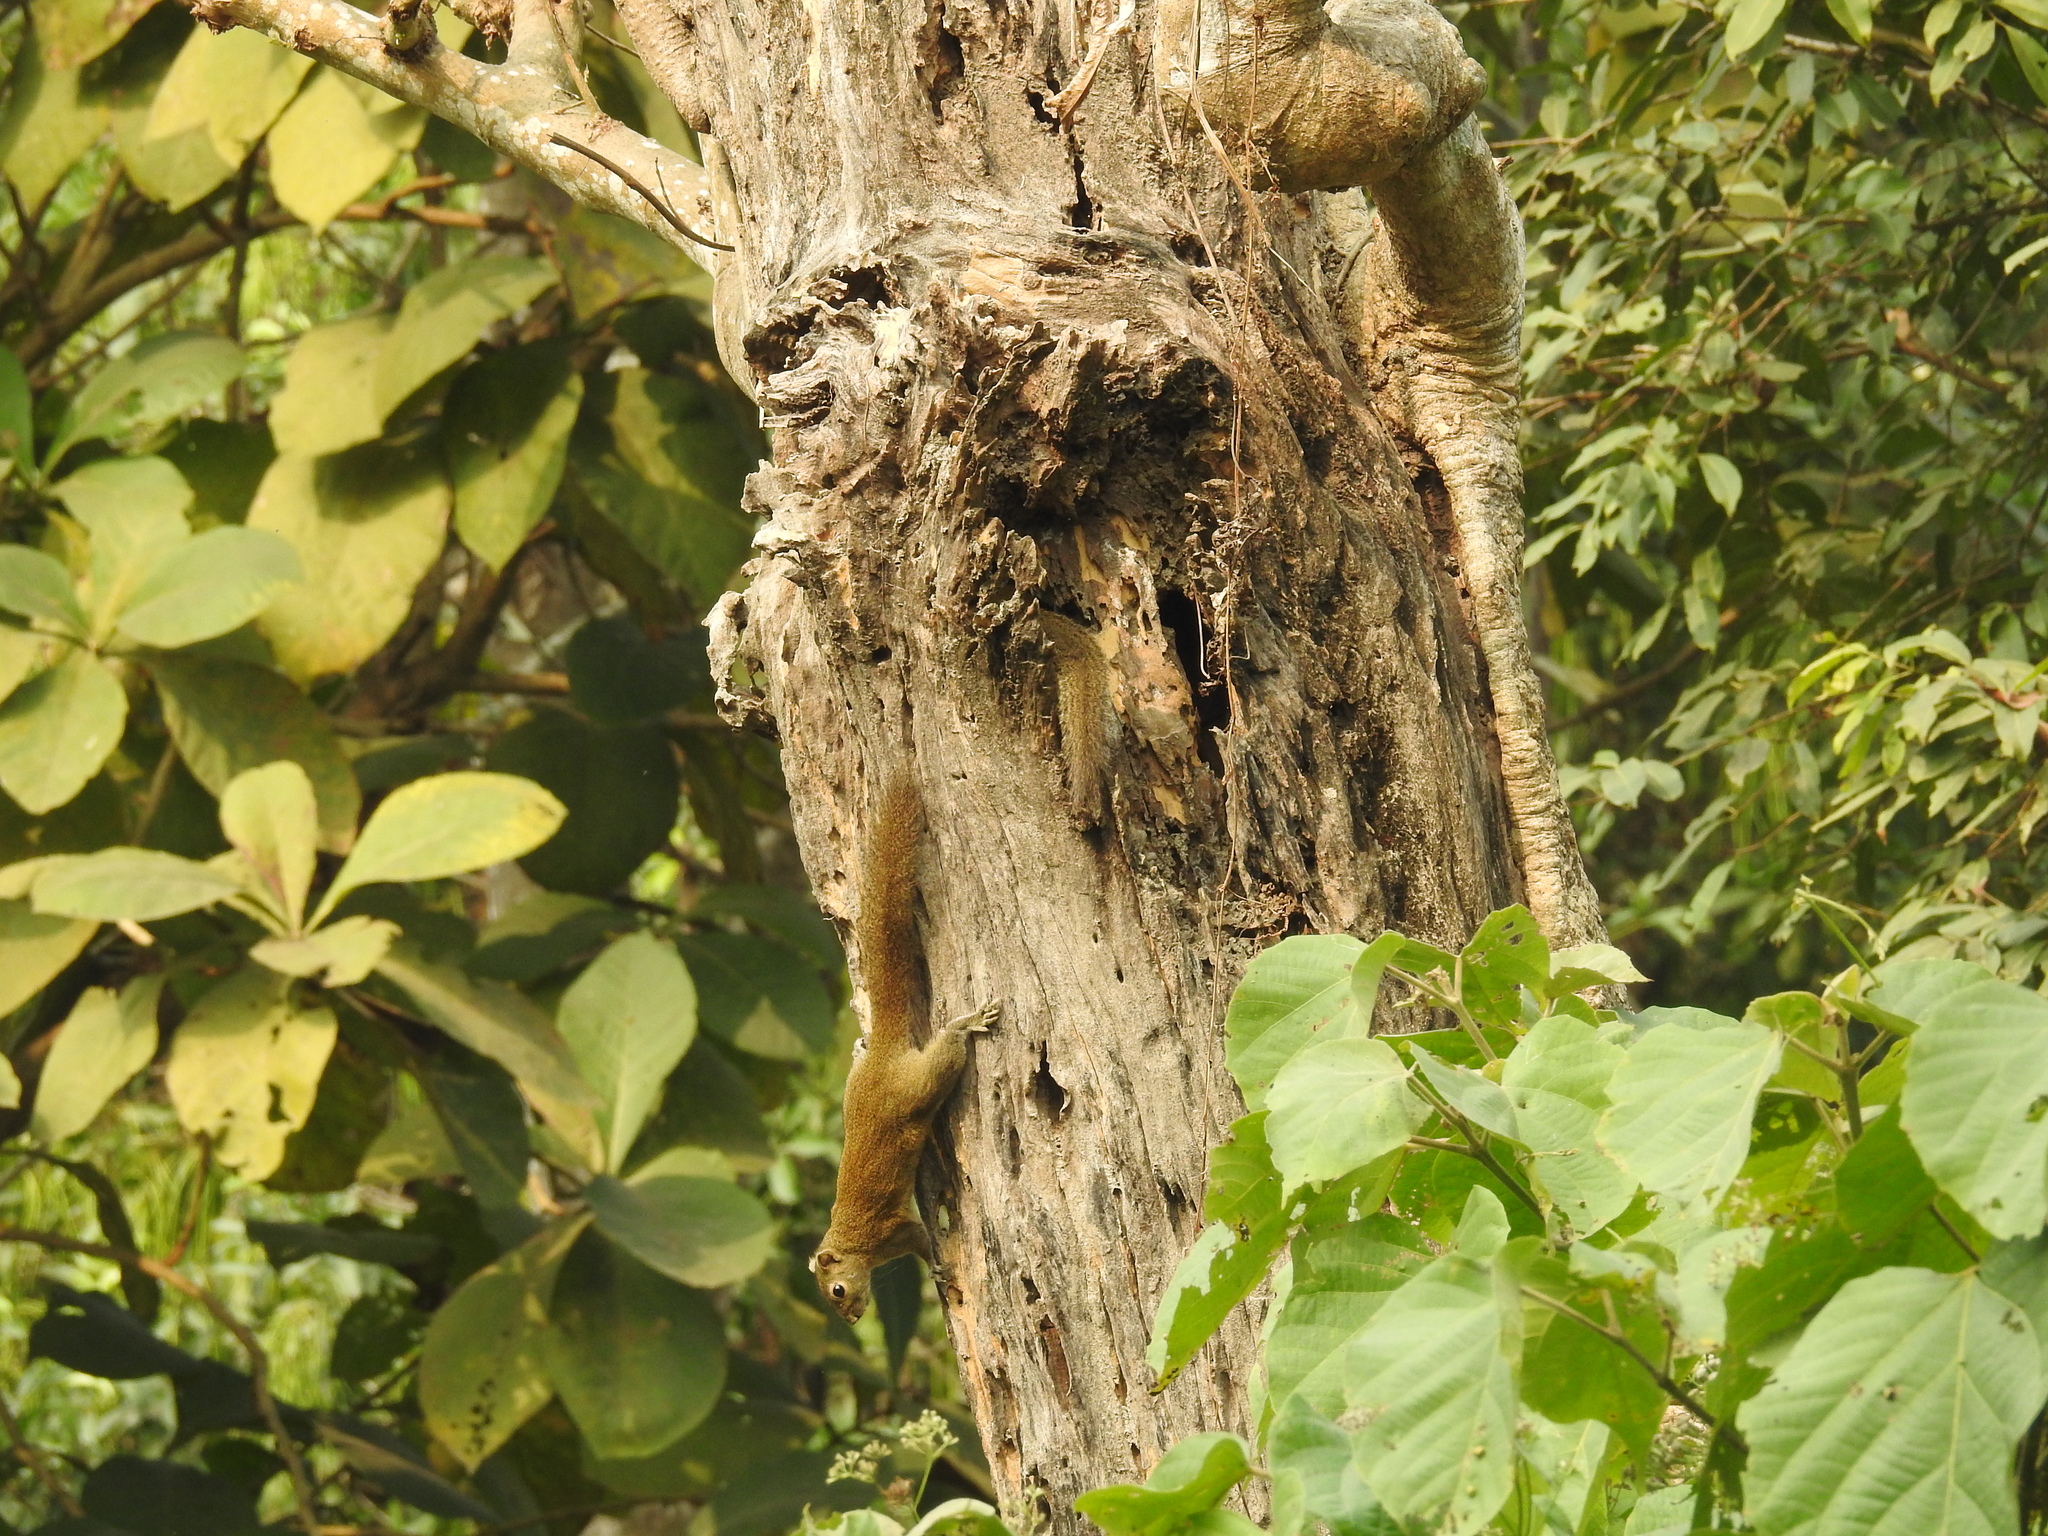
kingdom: Animalia
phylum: Chordata
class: Mammalia
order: Rodentia
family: Sciuridae
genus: Callosciurus
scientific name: Callosciurus pygerythrus
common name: Irrawaddy squirrel
